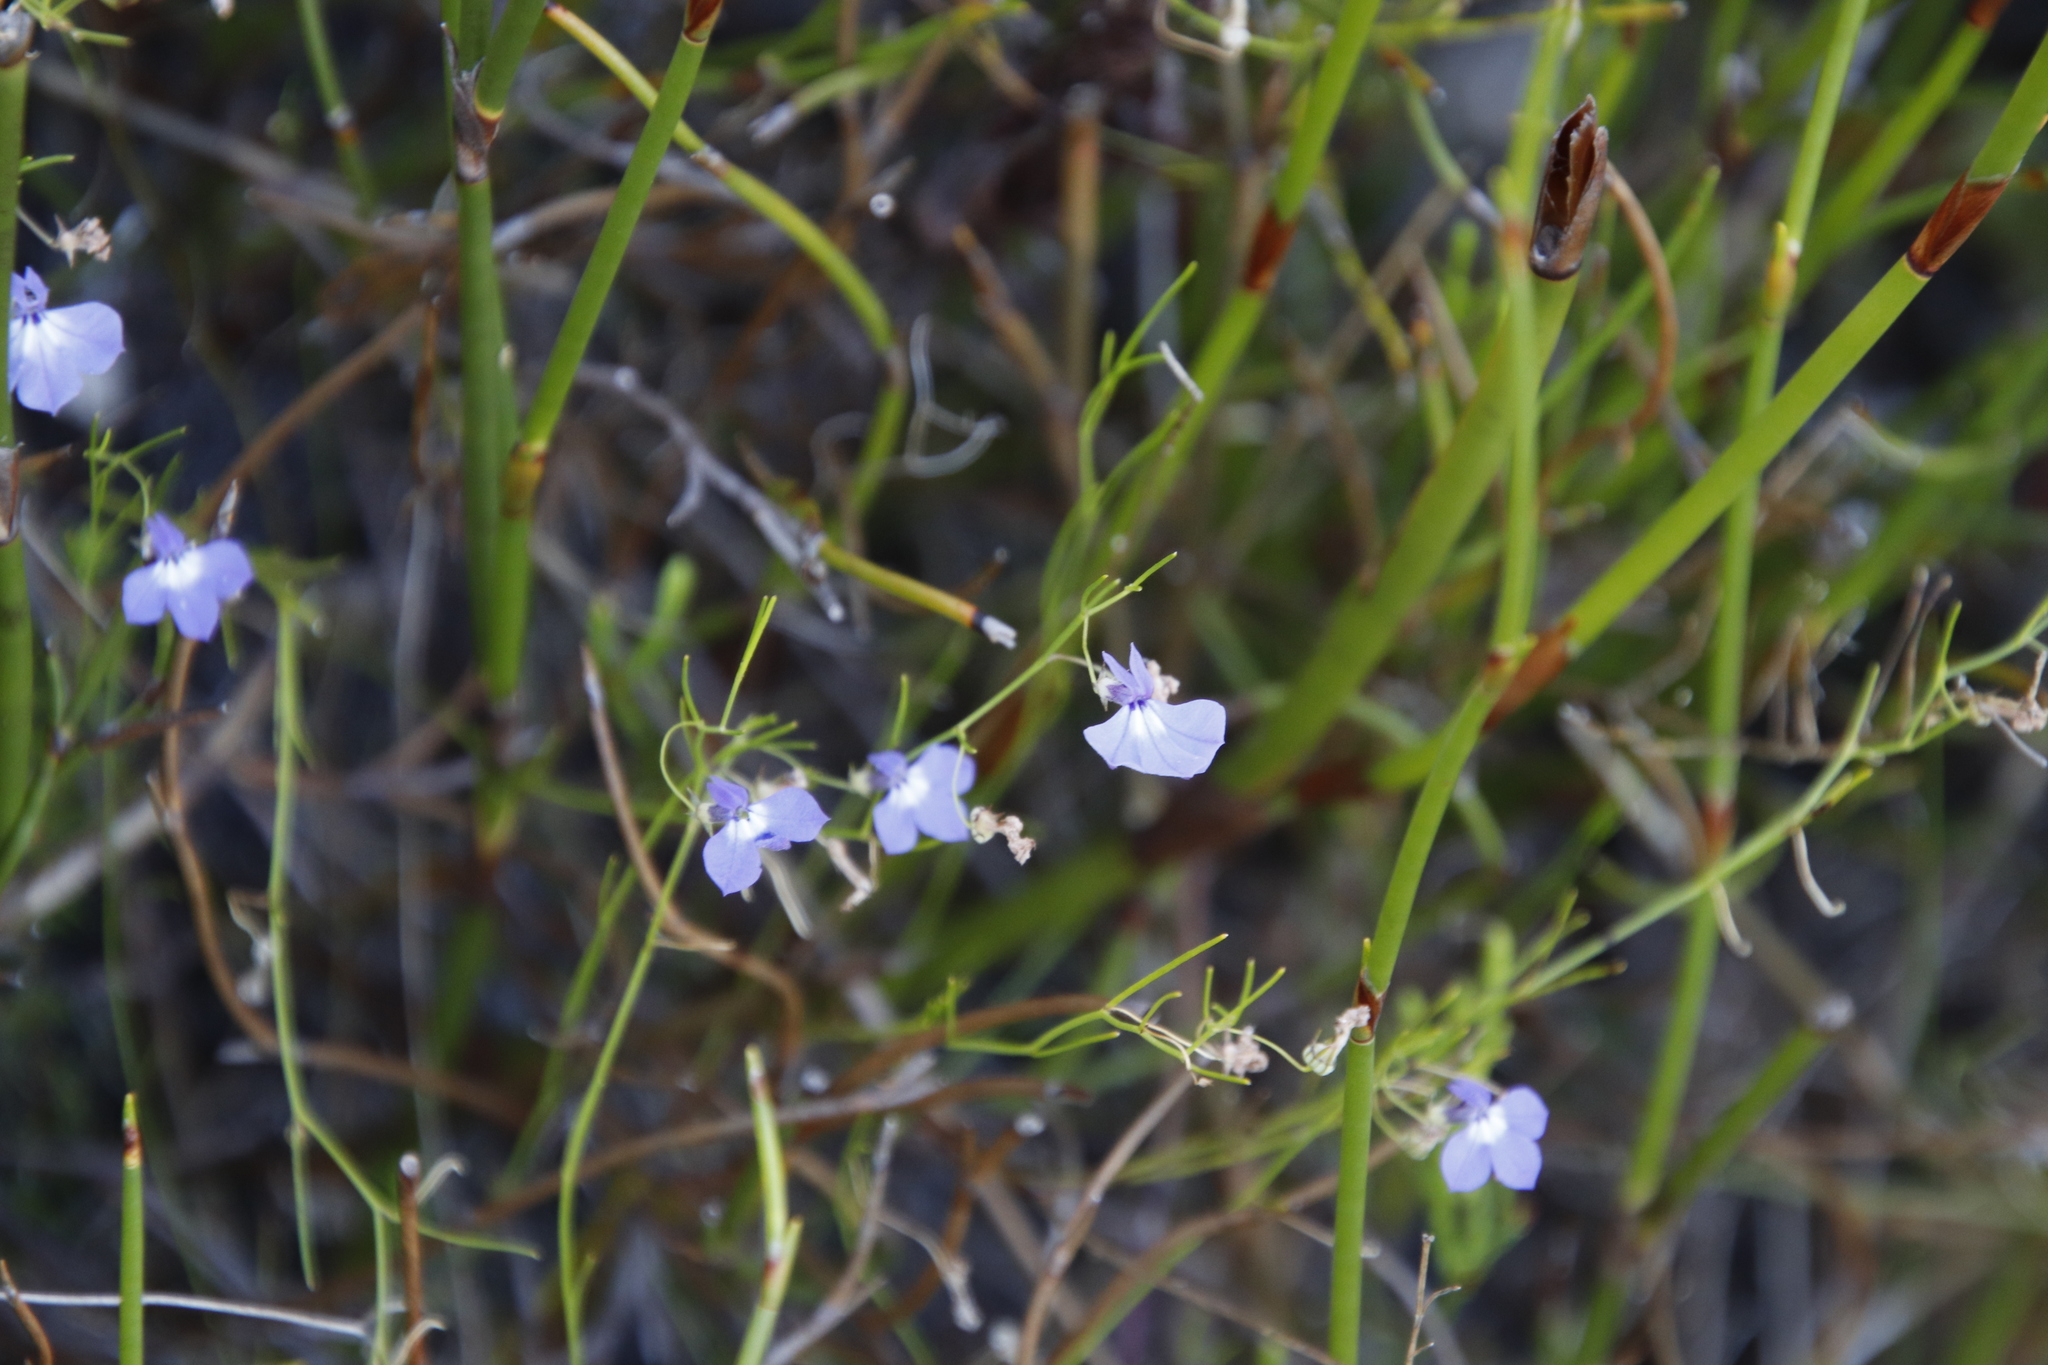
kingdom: Plantae
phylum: Tracheophyta
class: Magnoliopsida
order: Asterales
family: Campanulaceae
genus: Lobelia
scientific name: Lobelia setacea
